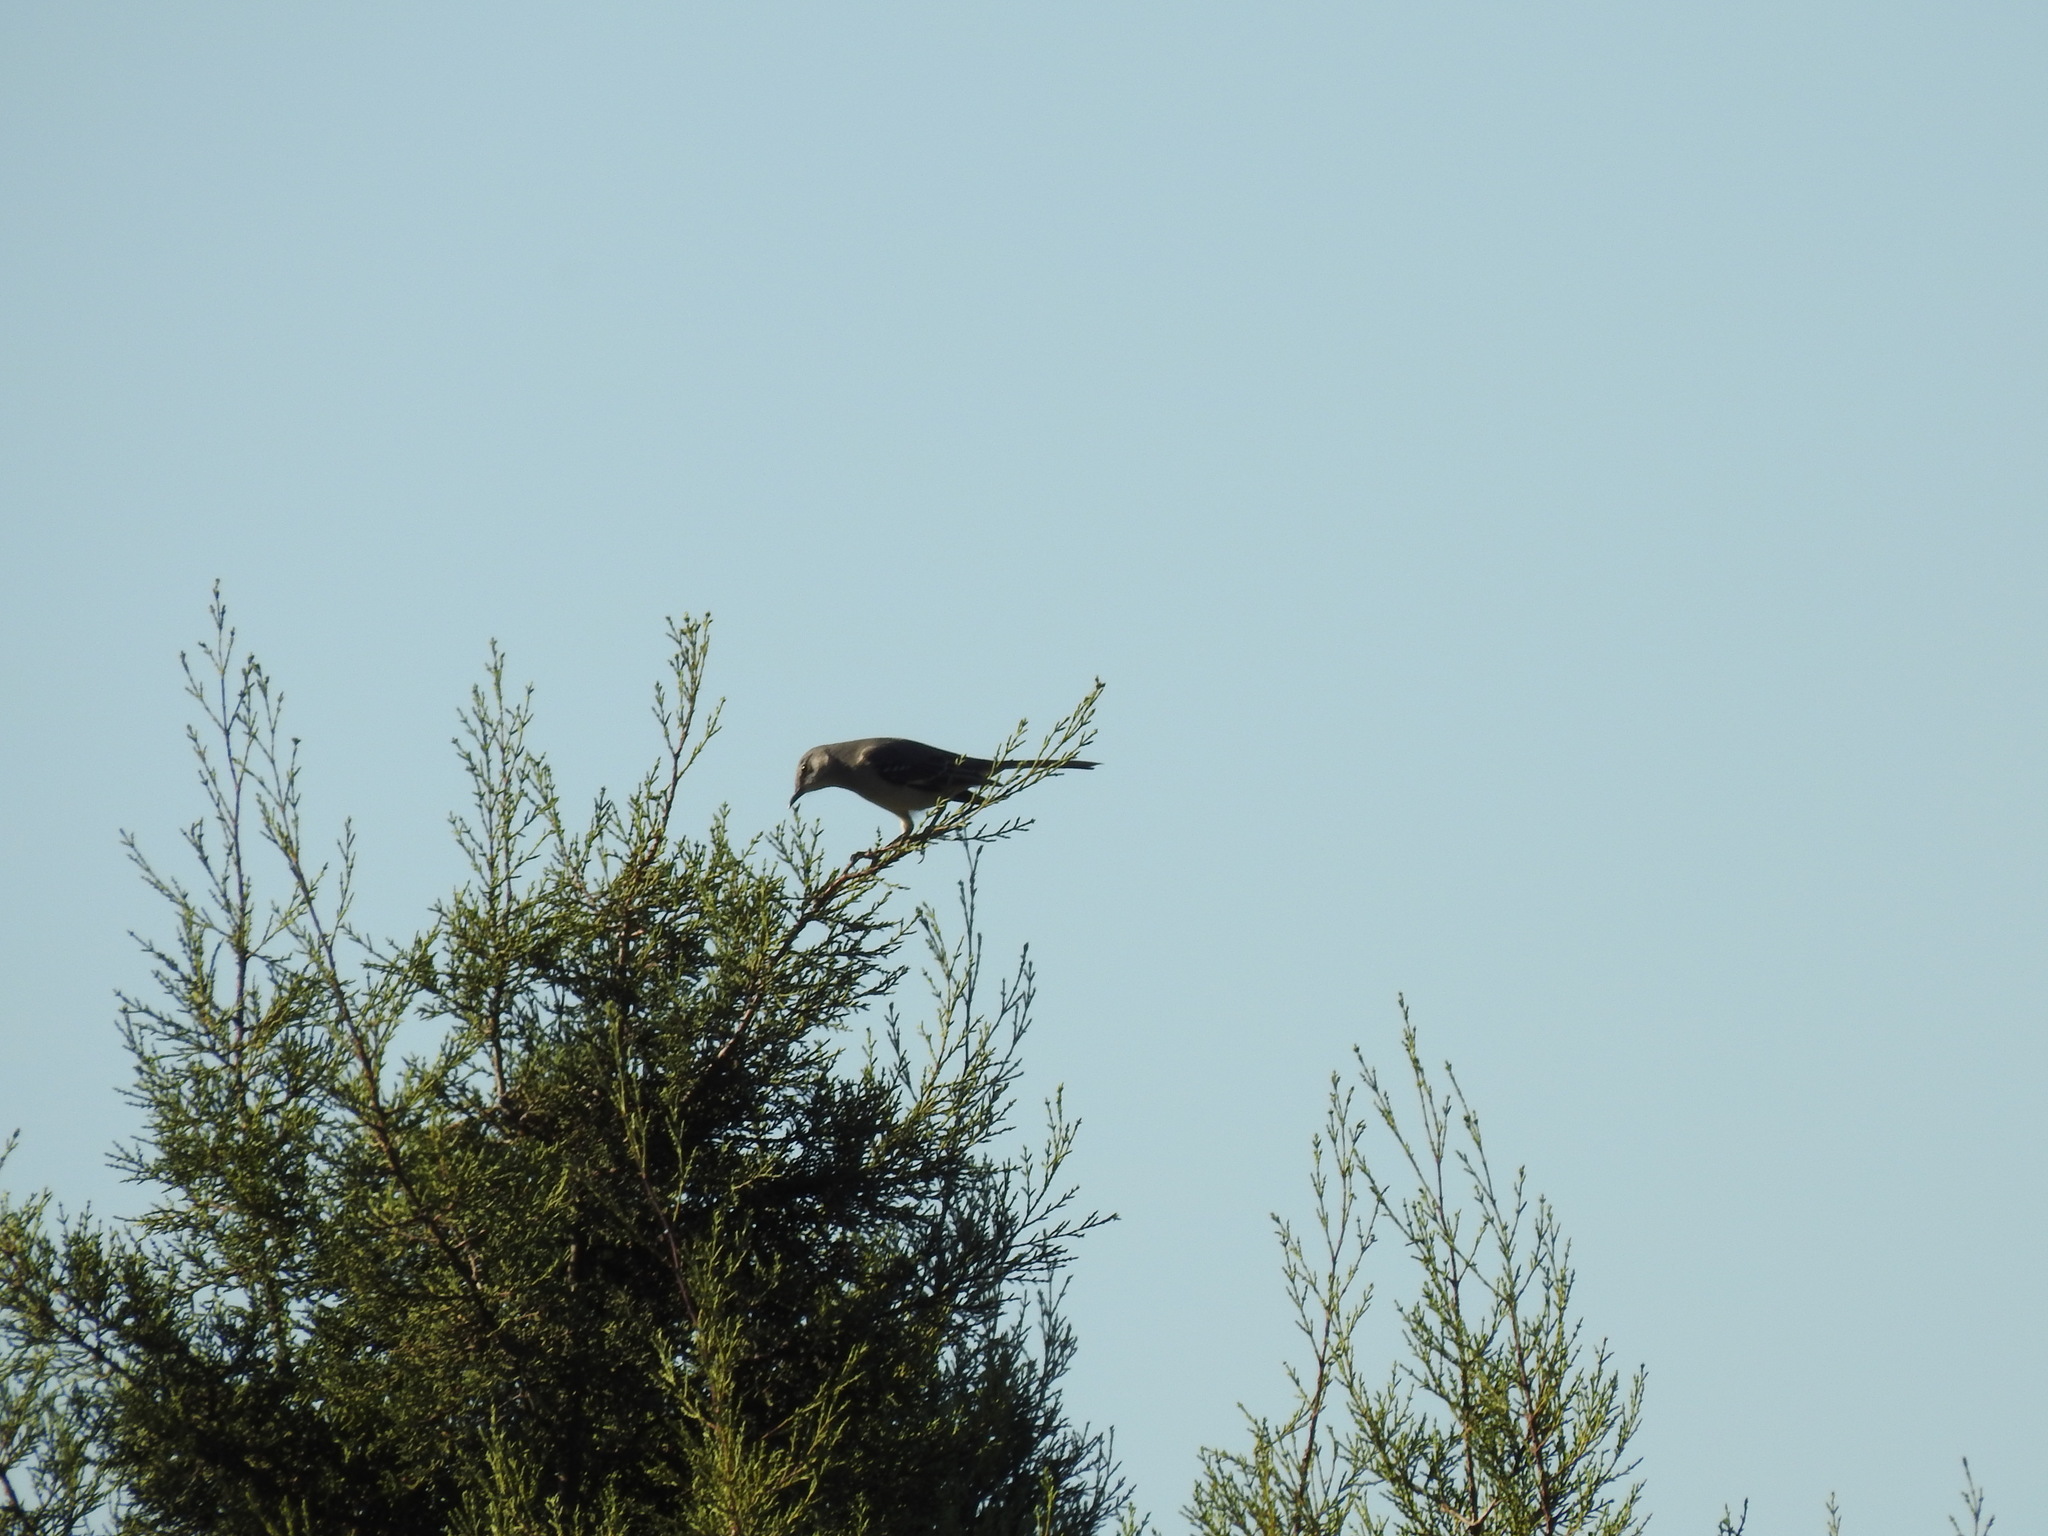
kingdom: Animalia
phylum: Chordata
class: Aves
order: Passeriformes
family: Mimidae
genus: Mimus
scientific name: Mimus polyglottos
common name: Northern mockingbird
